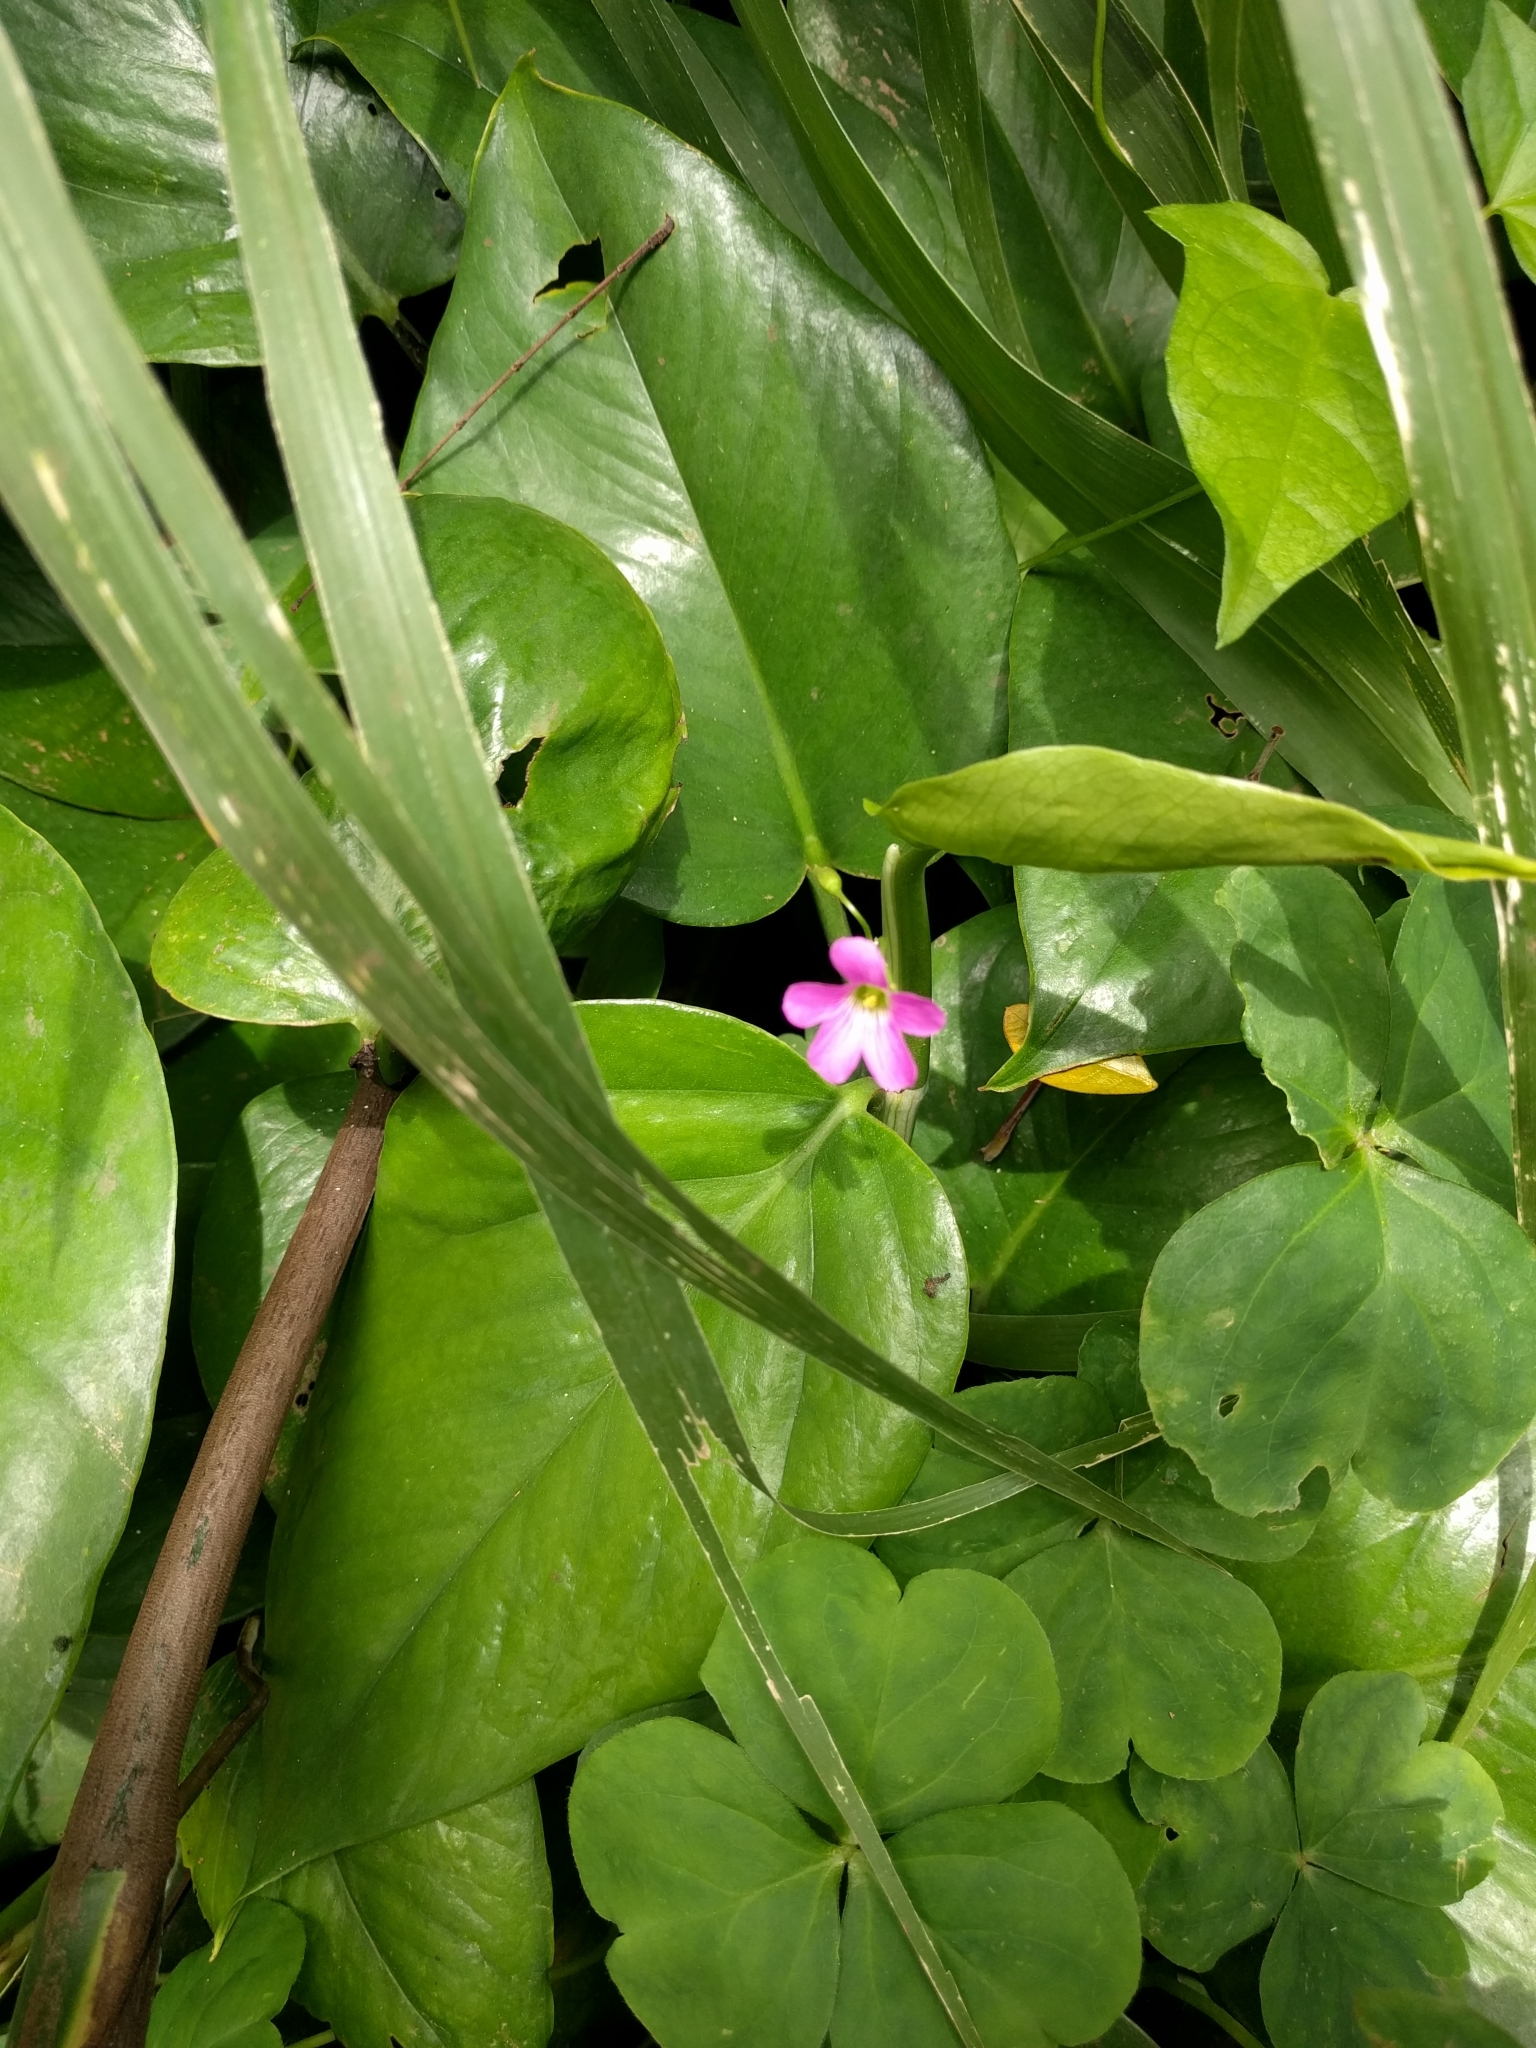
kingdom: Plantae
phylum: Tracheophyta
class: Magnoliopsida
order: Oxalidales
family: Oxalidaceae
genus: Oxalis
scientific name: Oxalis debilis
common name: Large-flowered pink-sorrel
